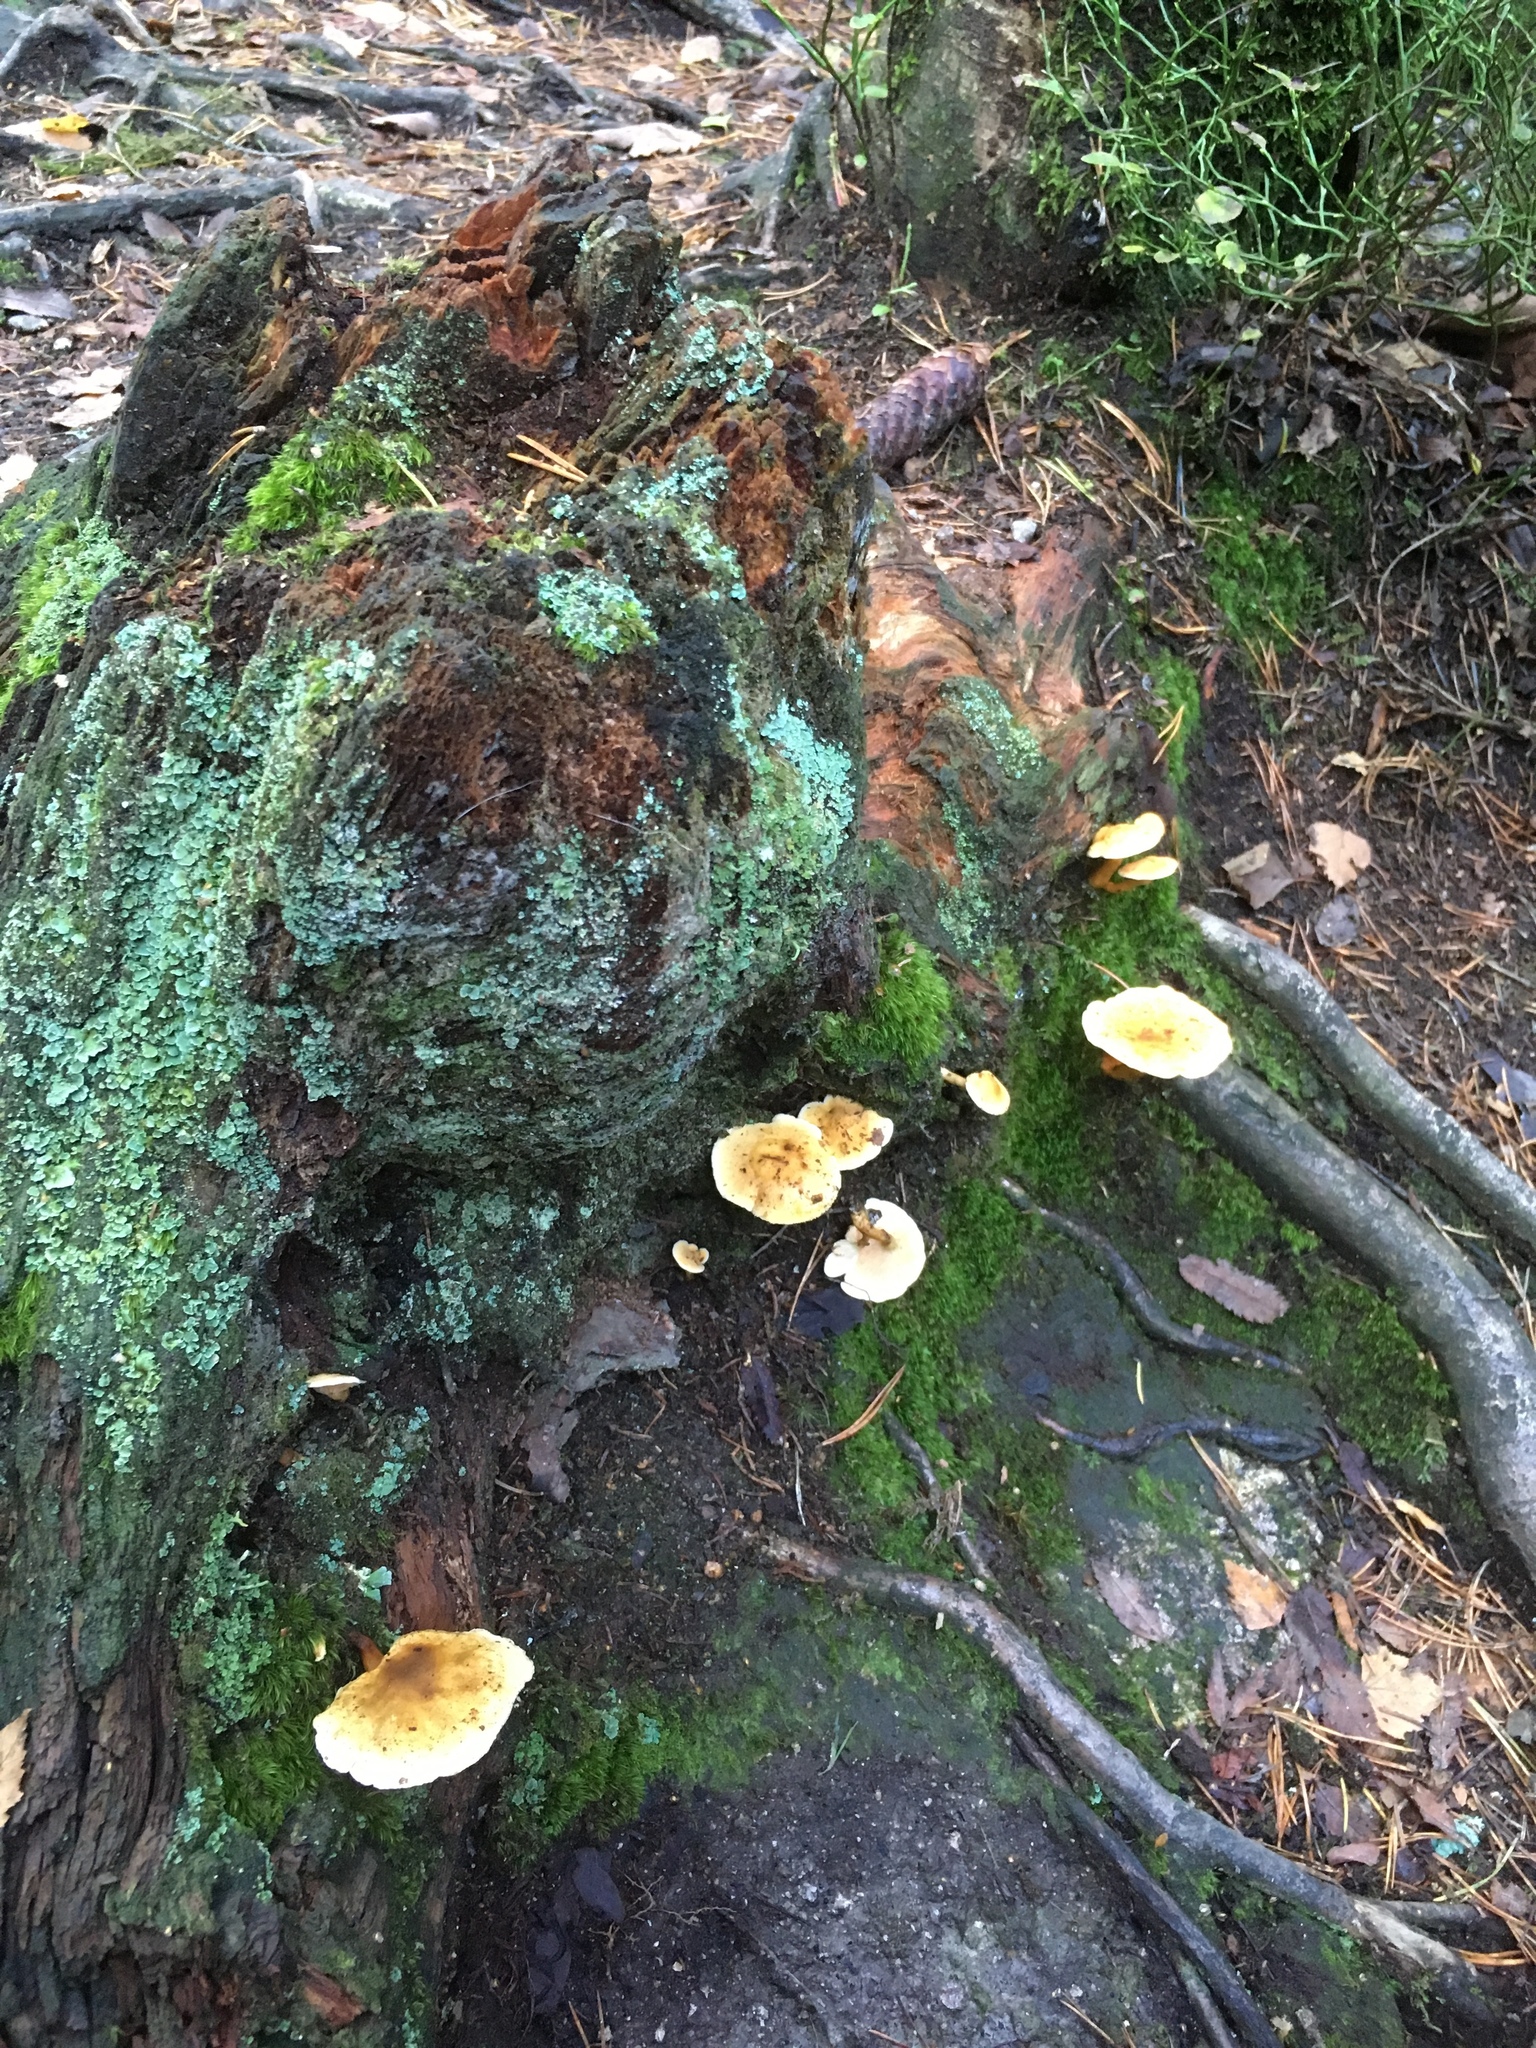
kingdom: Fungi
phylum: Basidiomycota
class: Agaricomycetes
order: Boletales
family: Hygrophoropsidaceae
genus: Hygrophoropsis
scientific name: Hygrophoropsis aurantiaca
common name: False chanterelle
